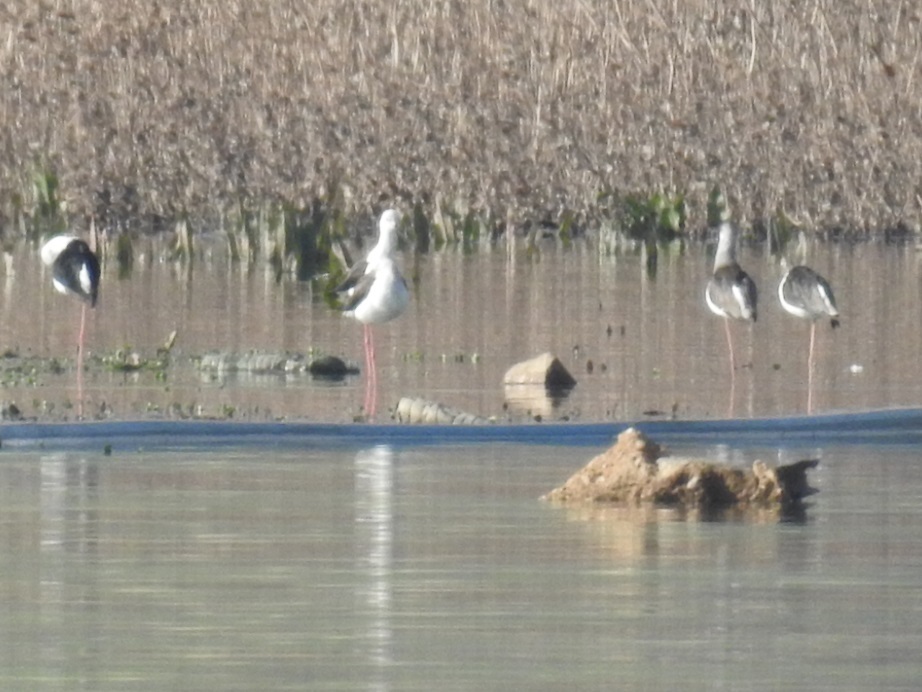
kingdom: Animalia
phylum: Chordata
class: Aves
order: Charadriiformes
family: Recurvirostridae
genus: Himantopus
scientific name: Himantopus himantopus
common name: Black-winged stilt
